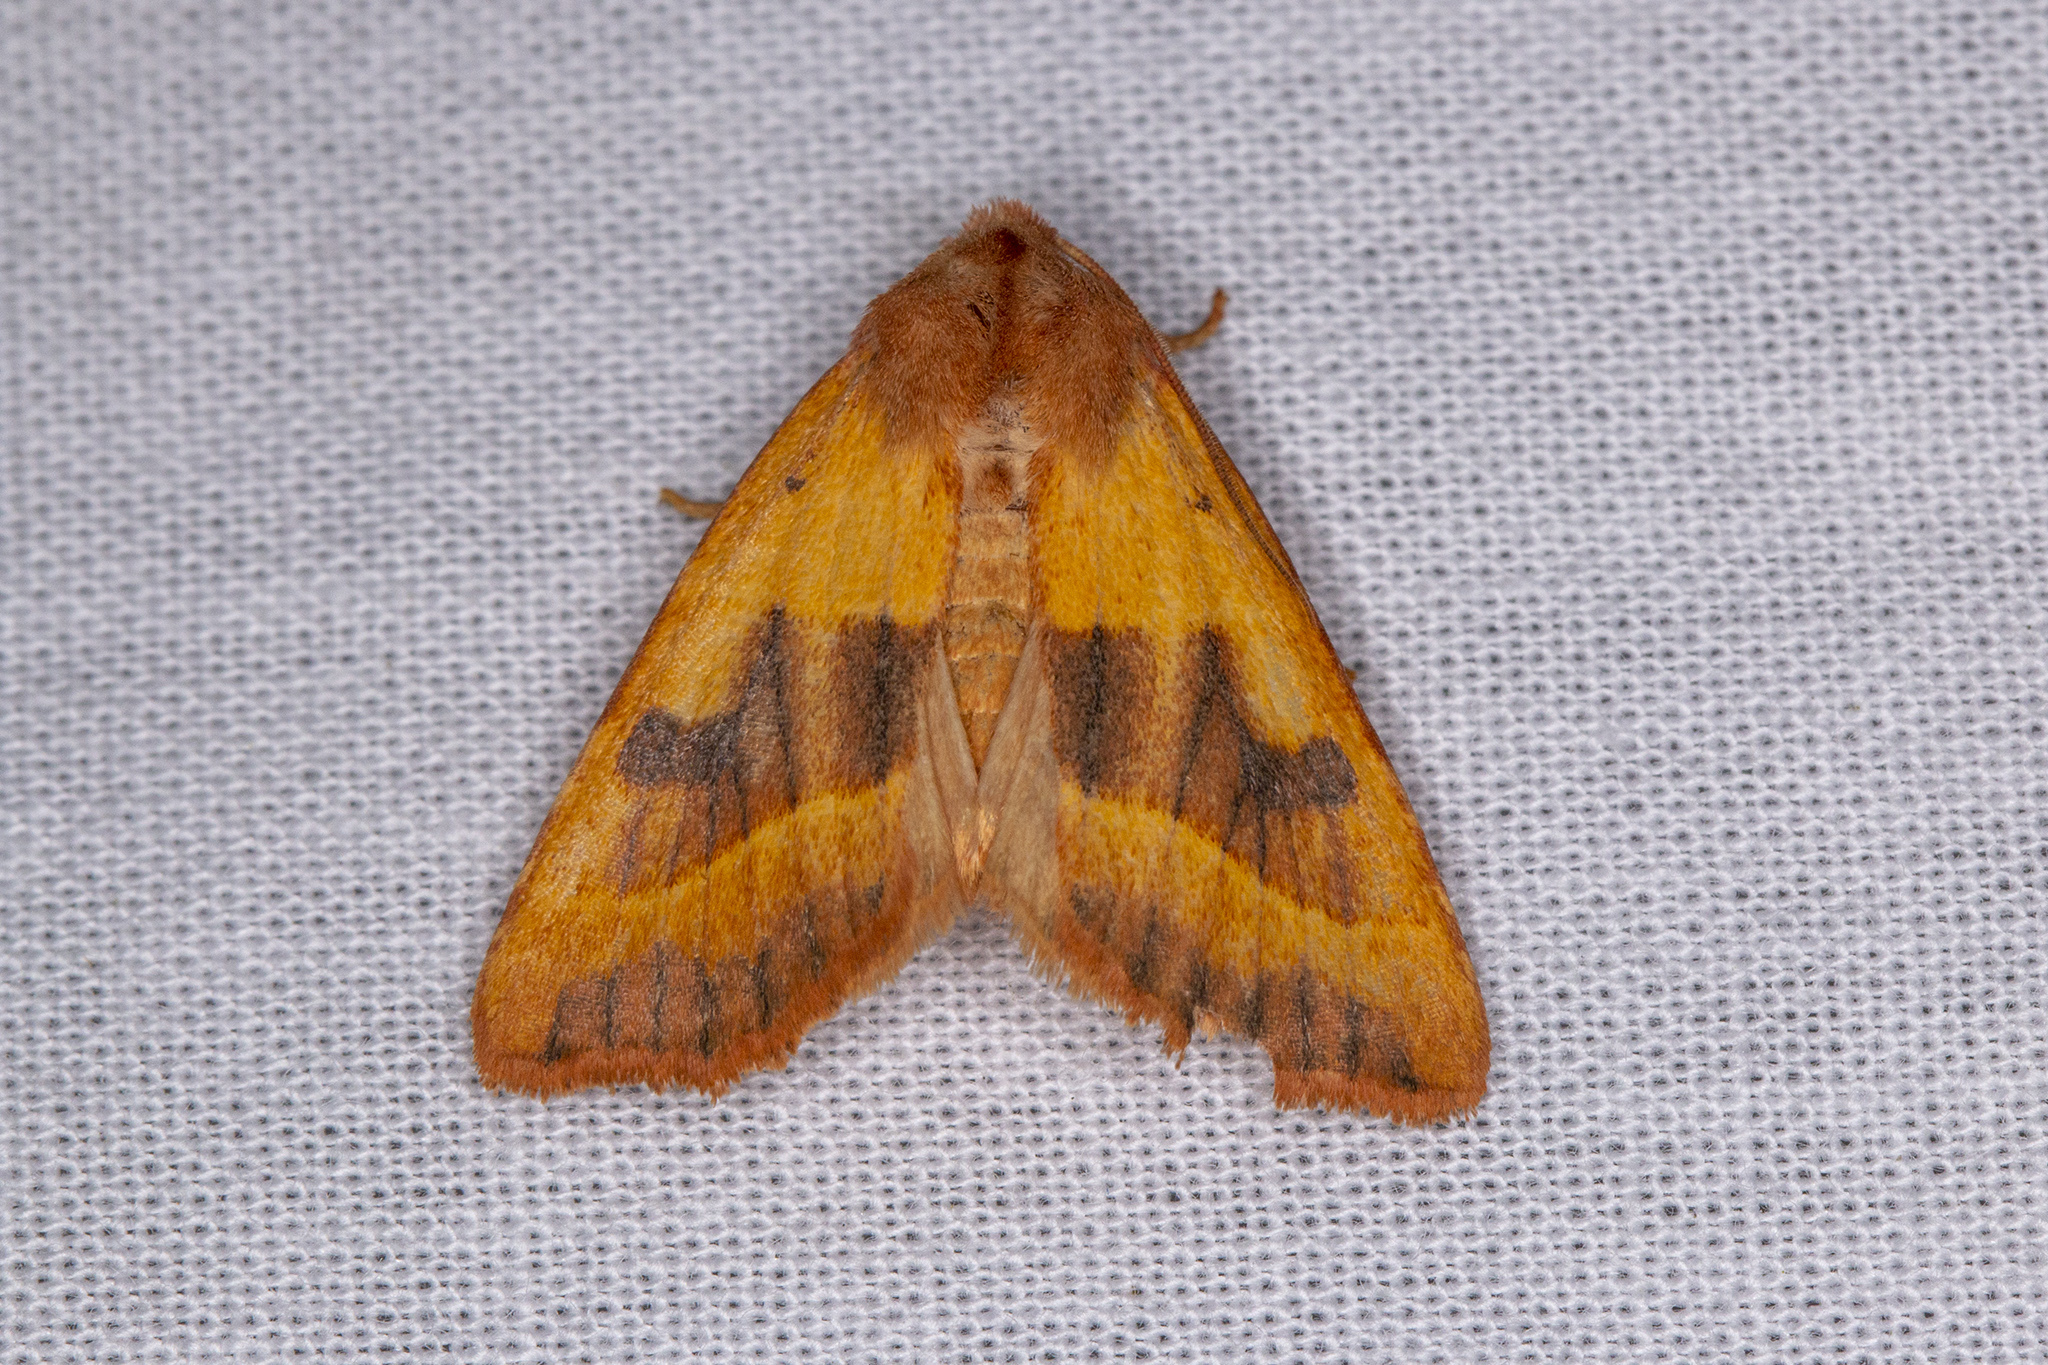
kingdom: Animalia
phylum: Arthropoda
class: Insecta
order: Lepidoptera
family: Noctuidae
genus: Atethmia
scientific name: Atethmia centrago
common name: Centre-barred sallow
